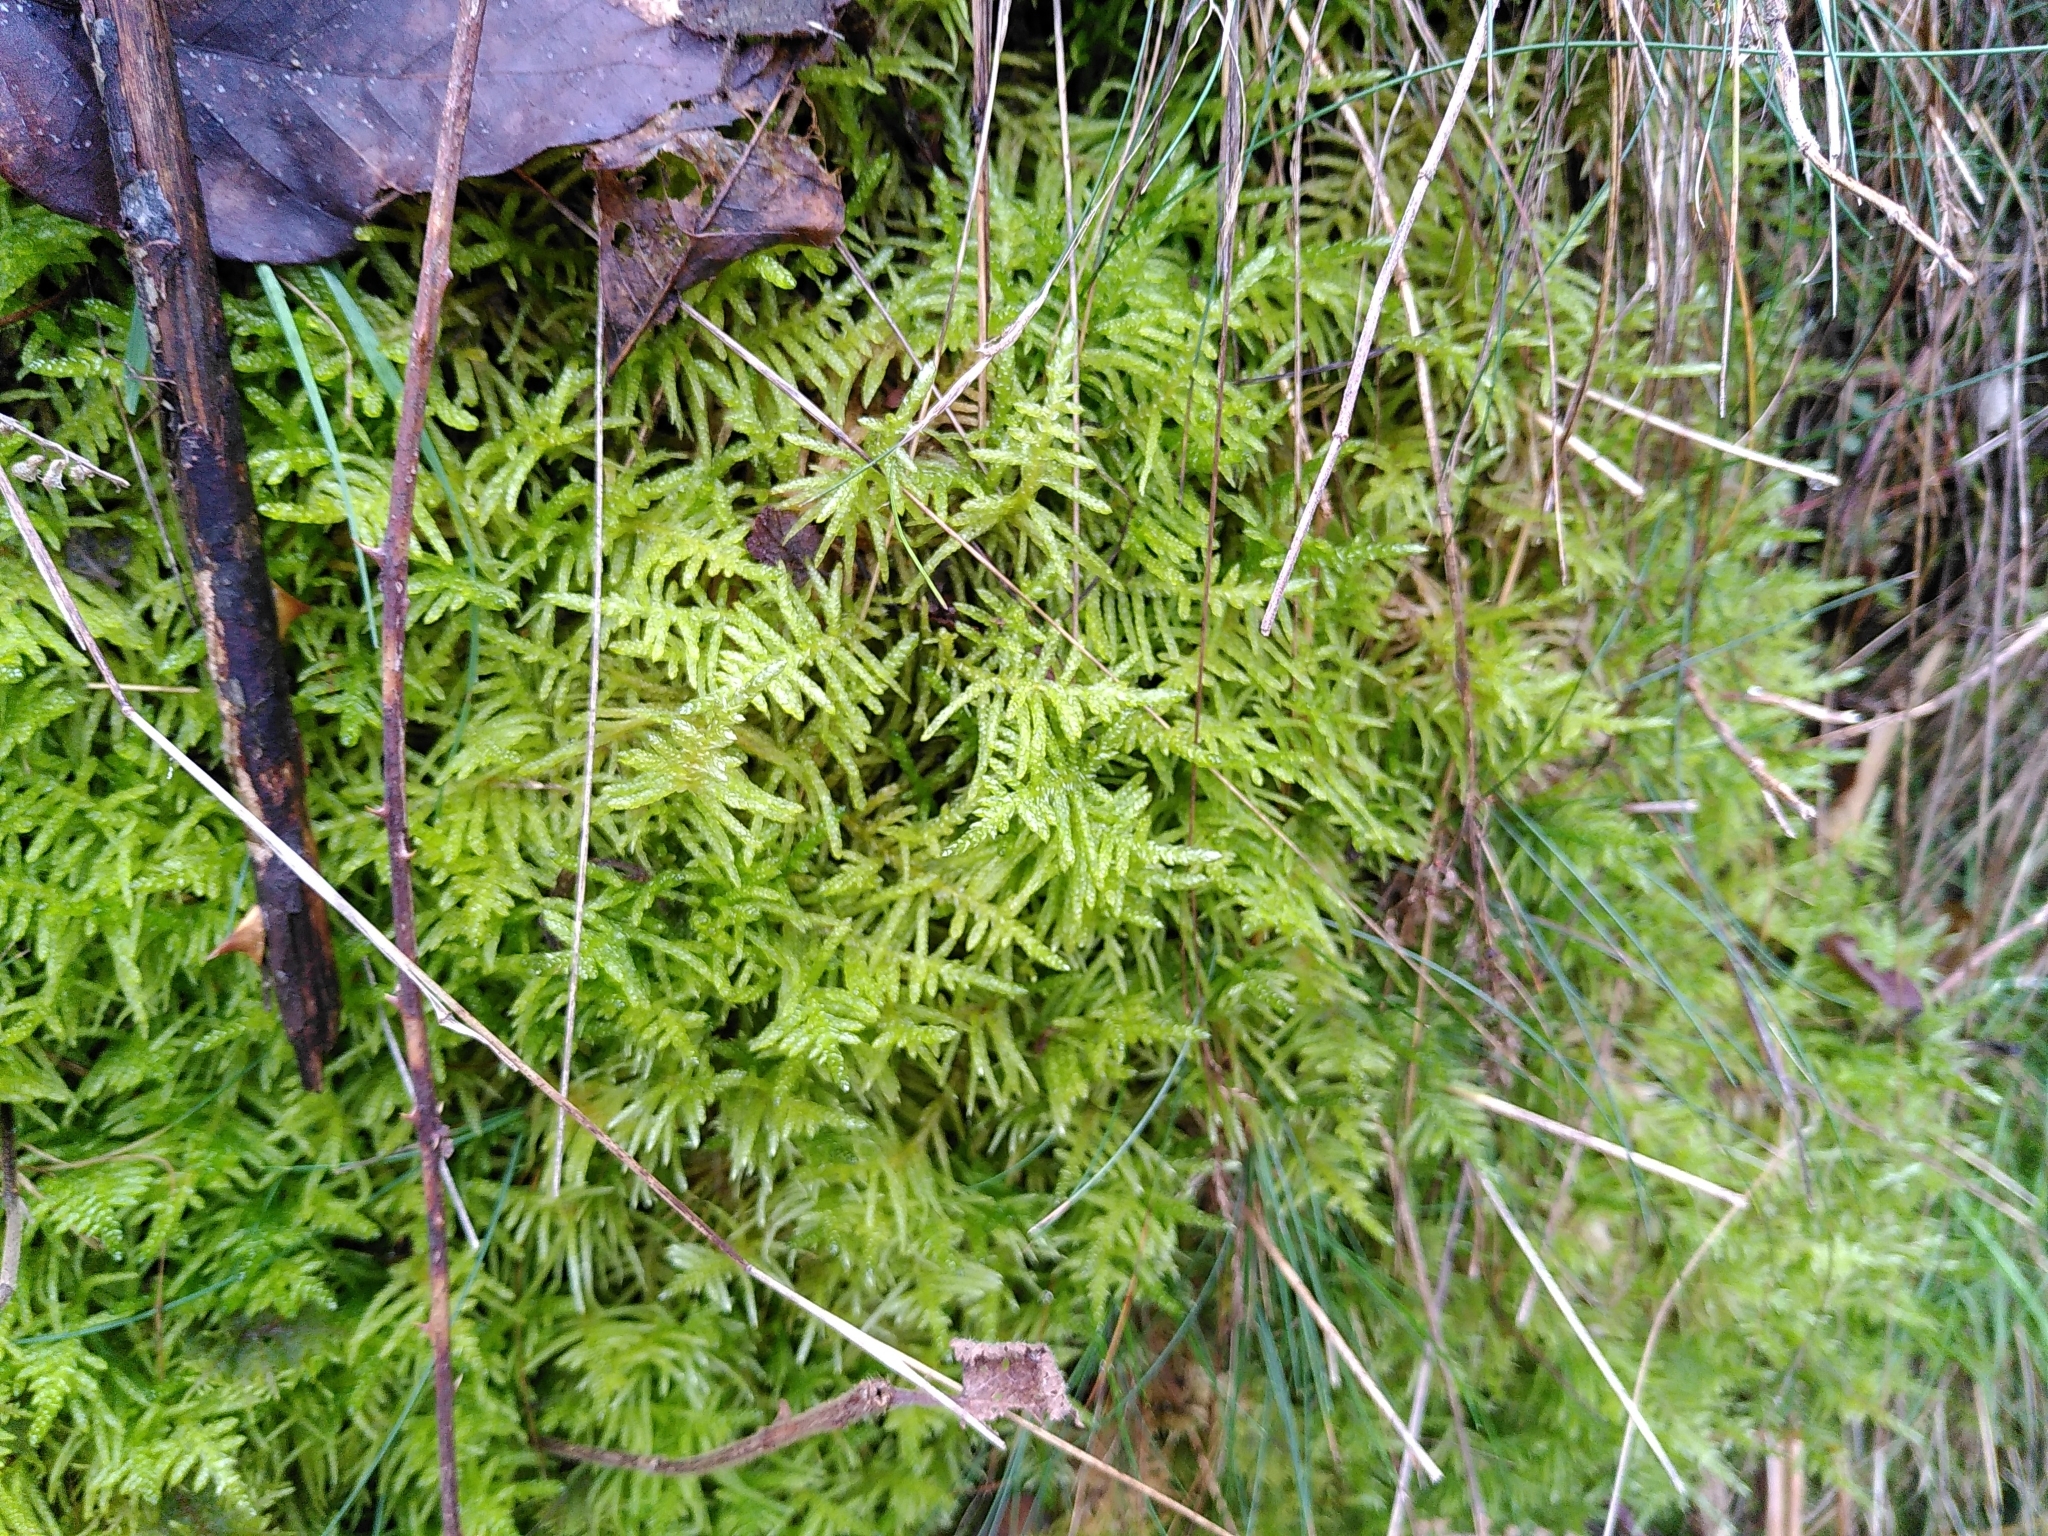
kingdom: Plantae
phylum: Bryophyta
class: Bryopsida
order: Hypnales
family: Brachytheciaceae
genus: Pseudoscleropodium
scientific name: Pseudoscleropodium purum
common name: Neat feather-moss
